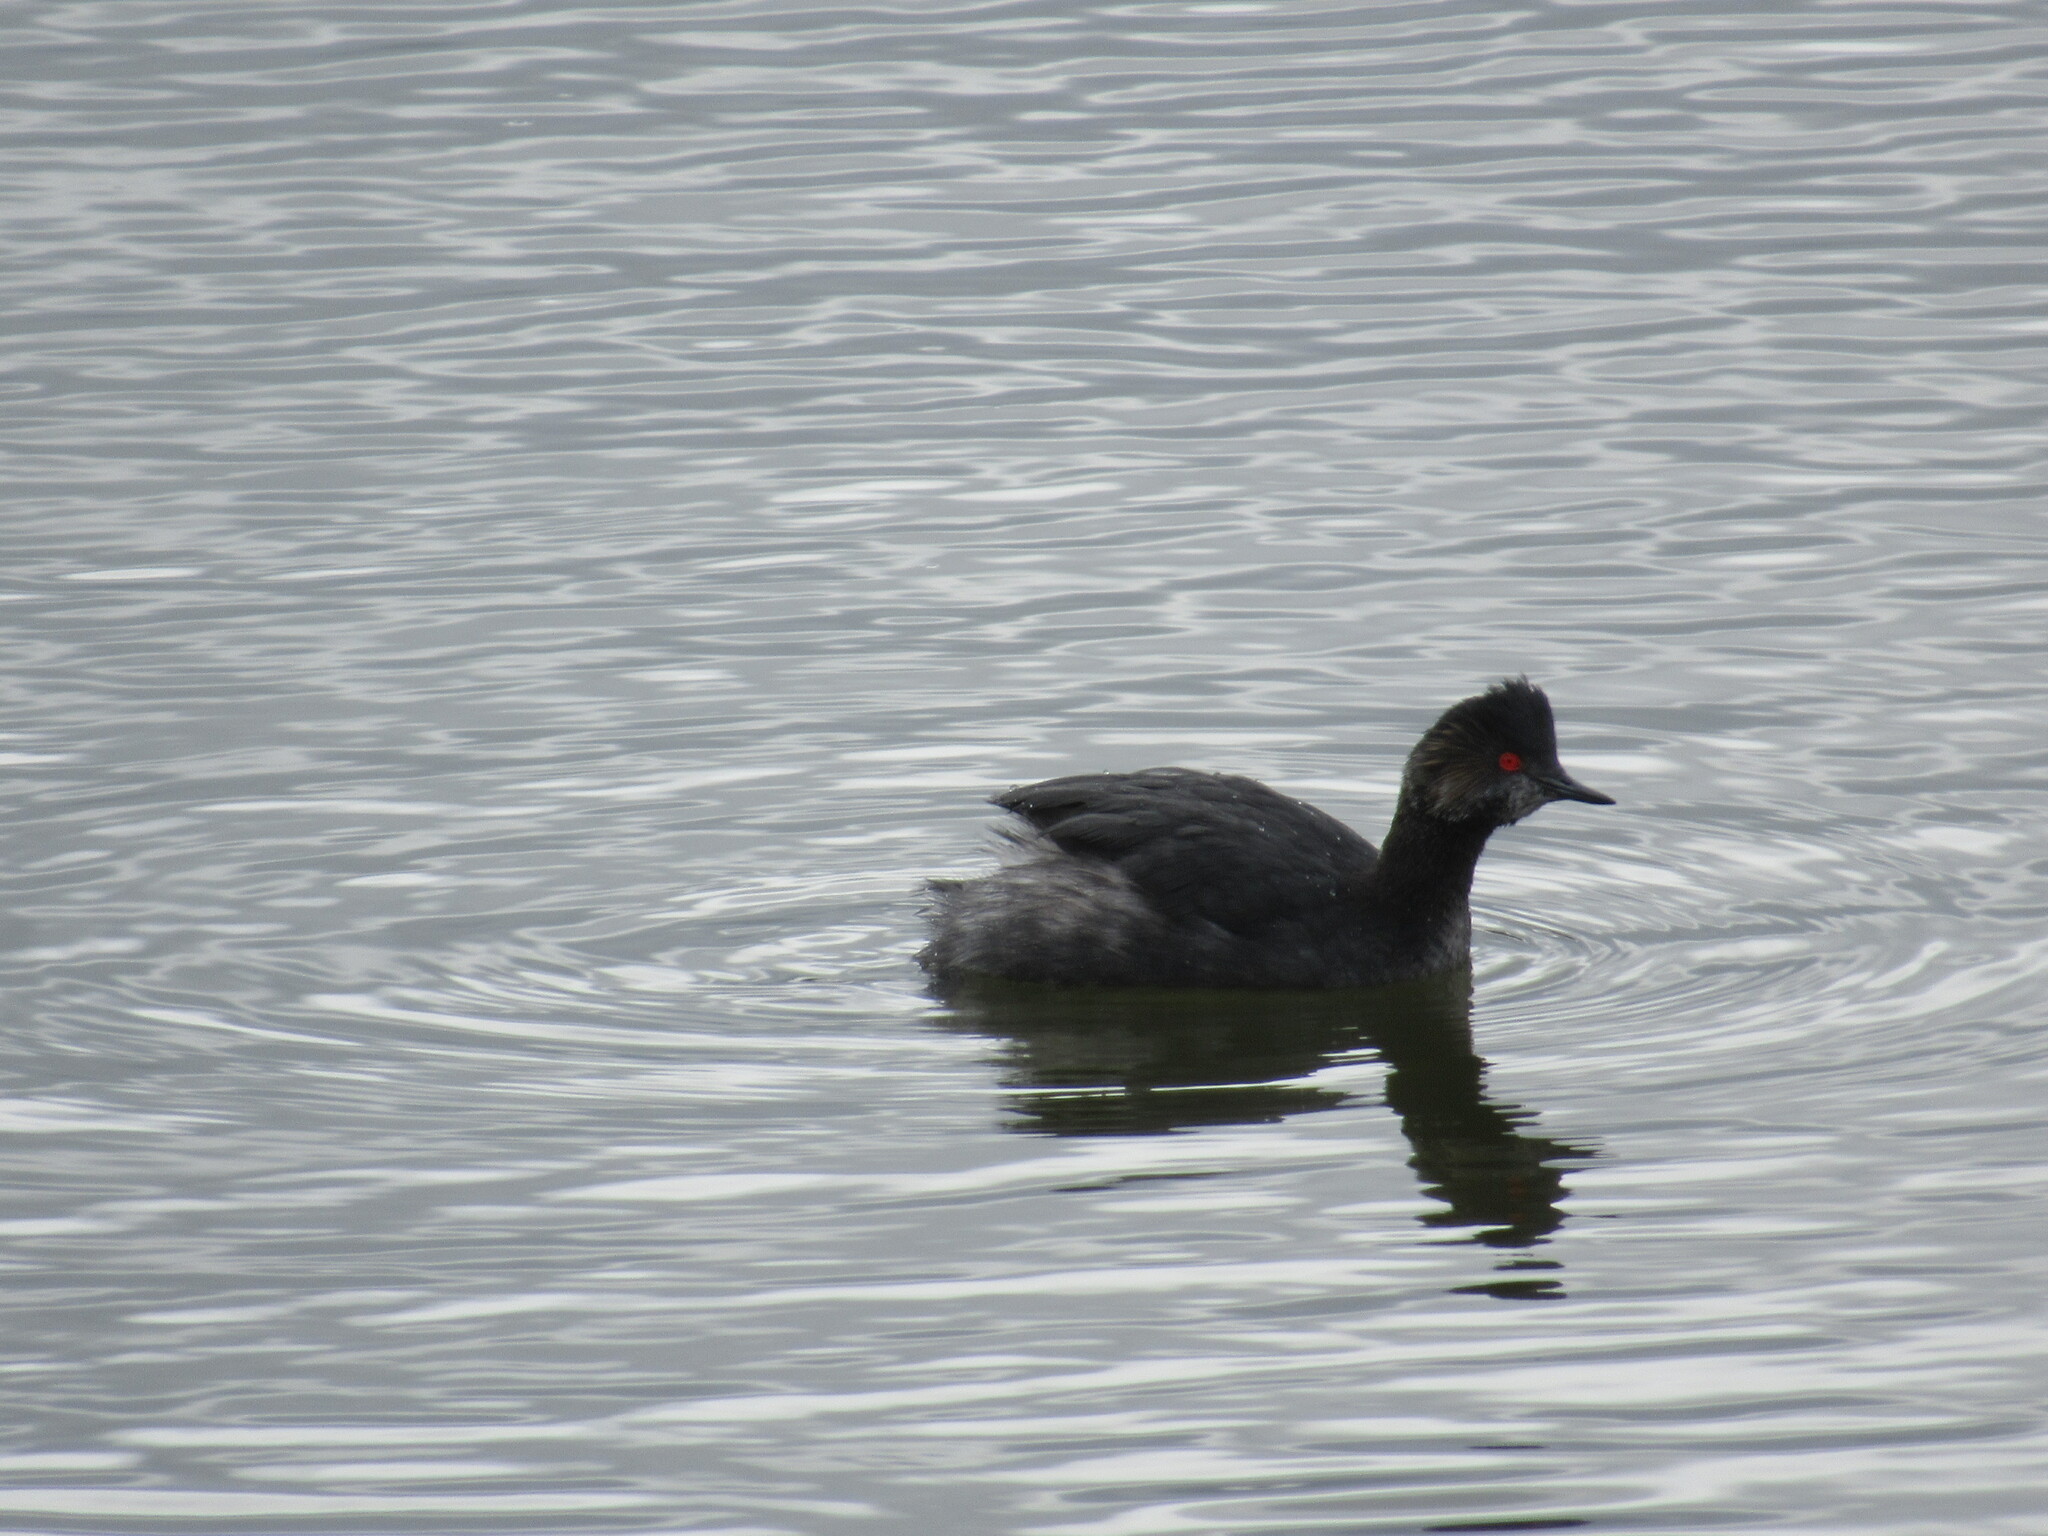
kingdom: Animalia
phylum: Chordata
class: Aves
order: Podicipediformes
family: Podicipedidae
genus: Podiceps
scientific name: Podiceps nigricollis
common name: Black-necked grebe
